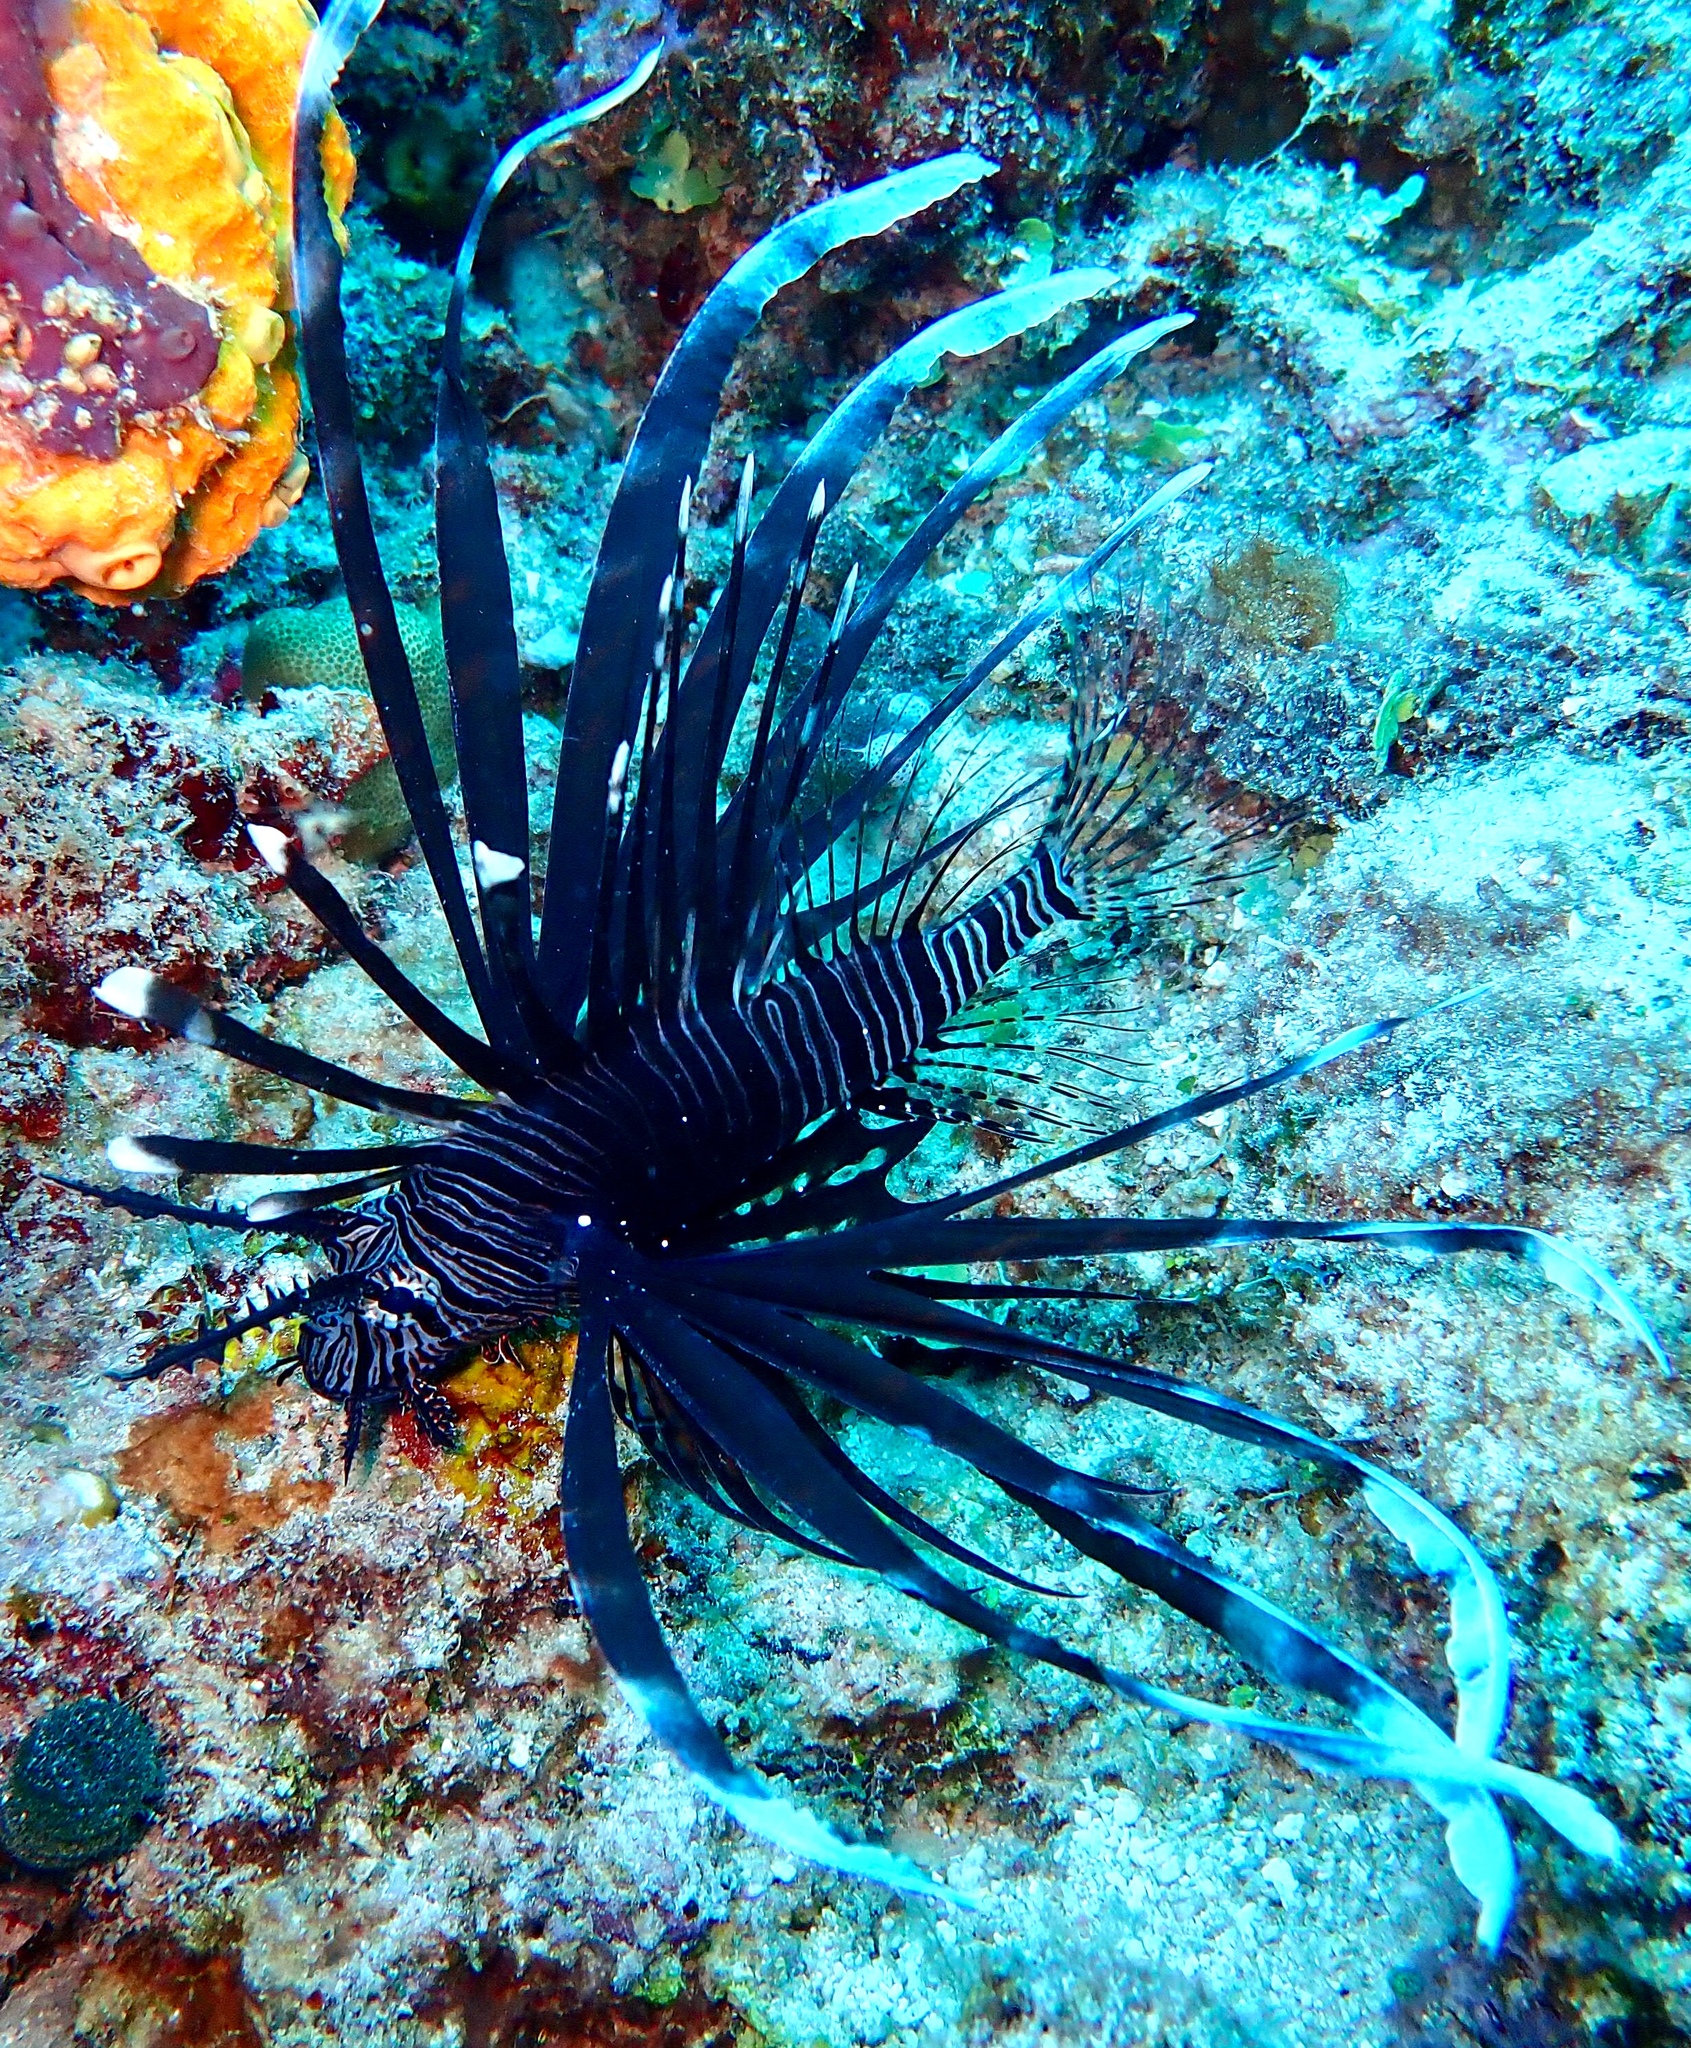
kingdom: Animalia
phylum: Chordata
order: Scorpaeniformes
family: Scorpaenidae
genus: Pterois
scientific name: Pterois volitans
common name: Lionfish
